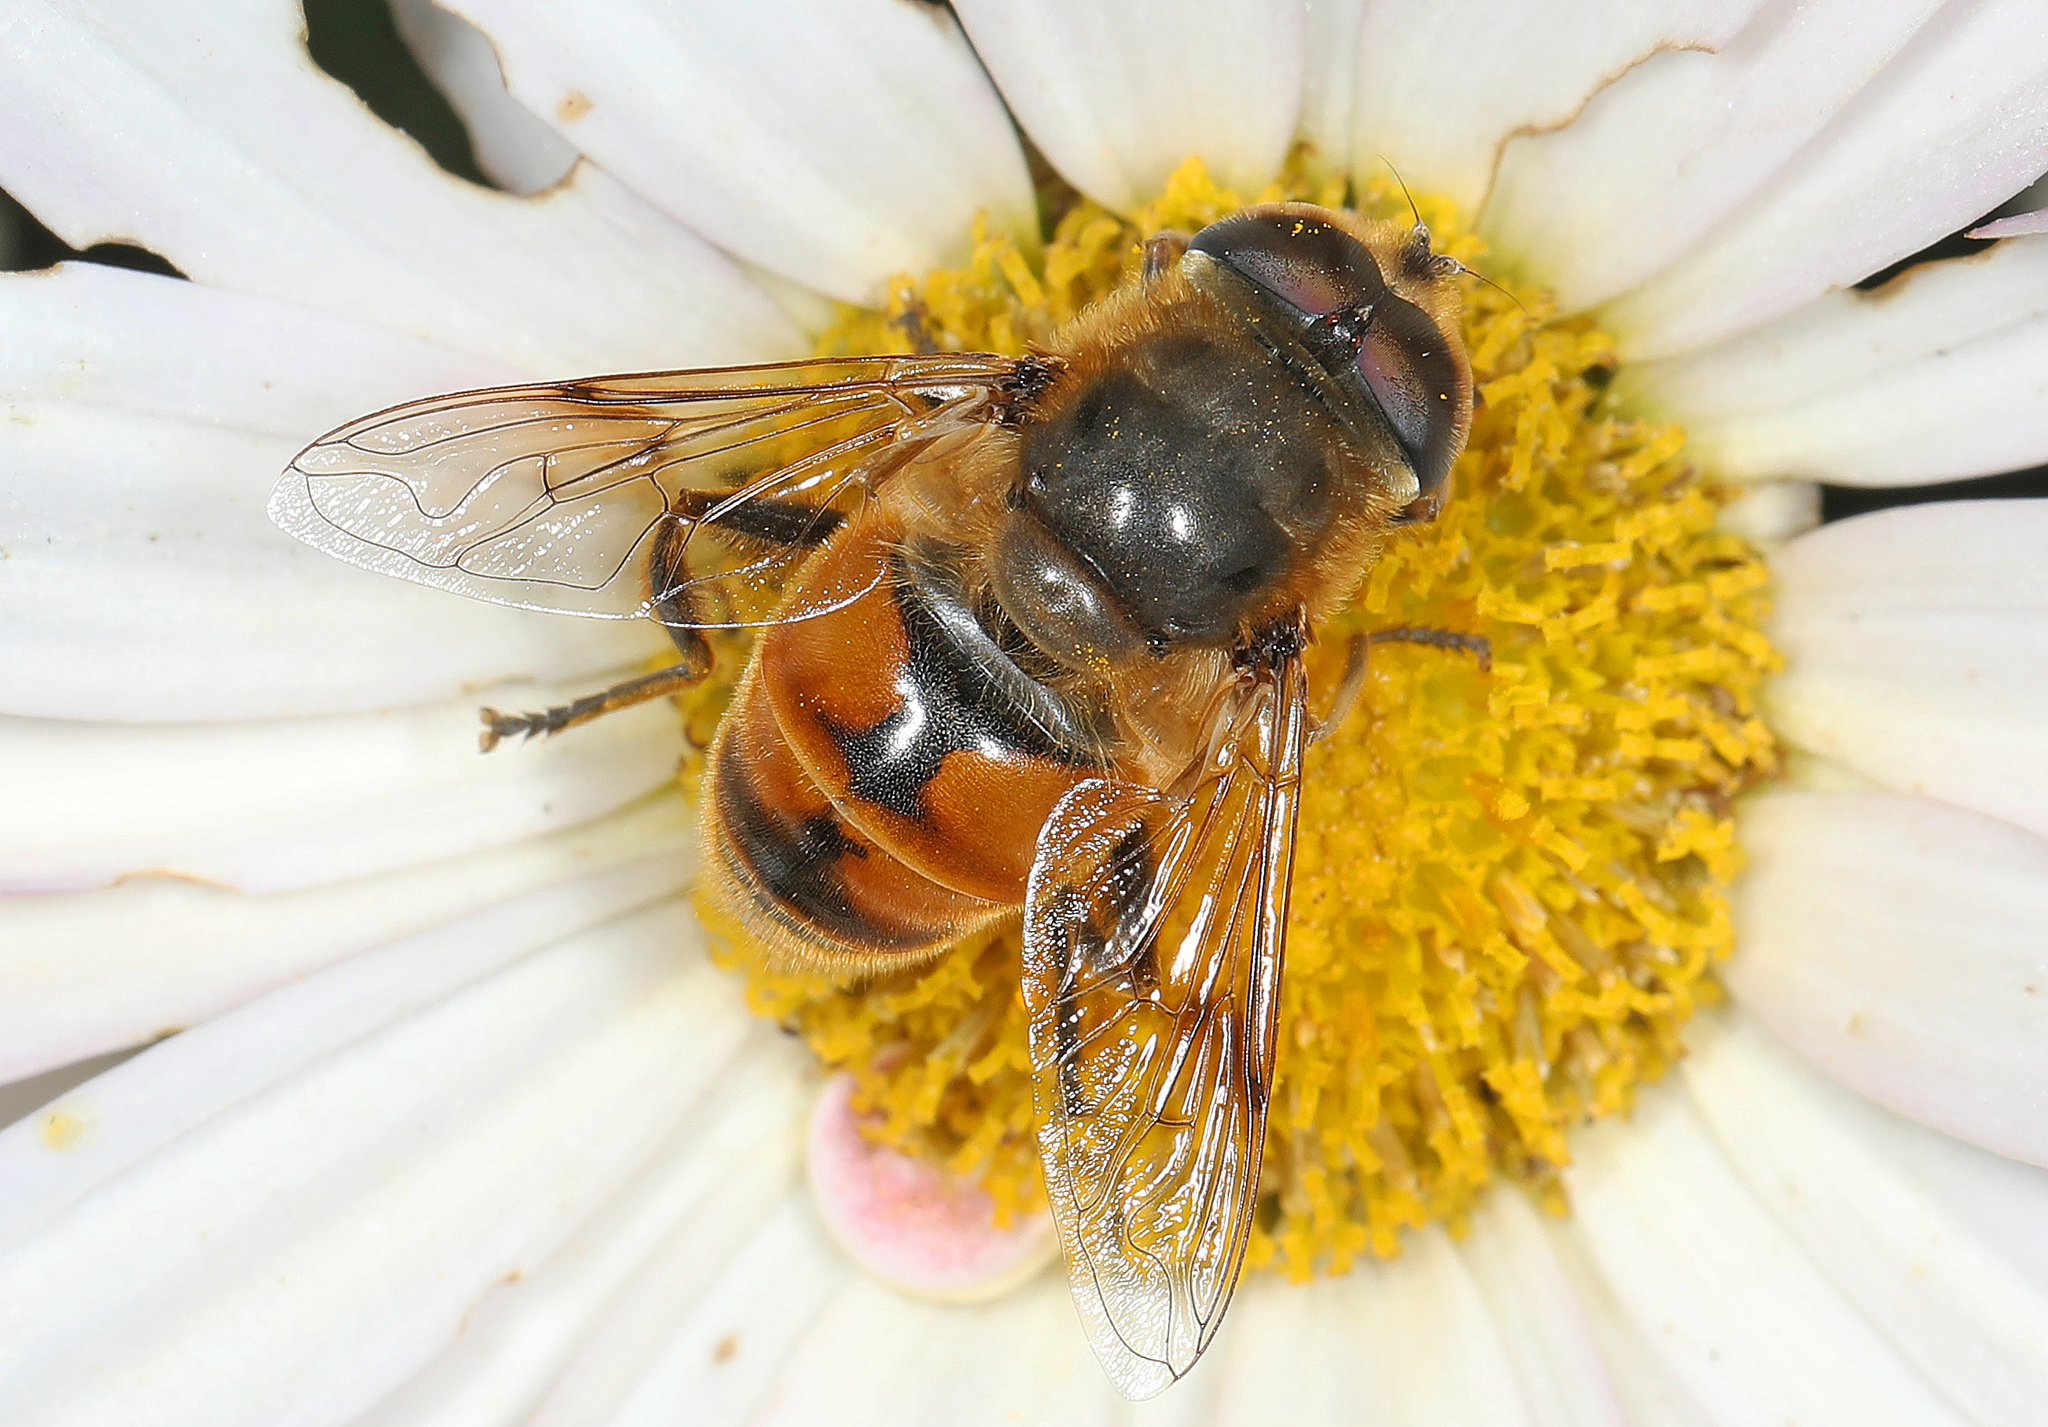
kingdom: Animalia
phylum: Arthropoda
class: Insecta
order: Diptera
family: Syrphidae
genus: Eristalis
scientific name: Eristalis tenax
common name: Drone fly
